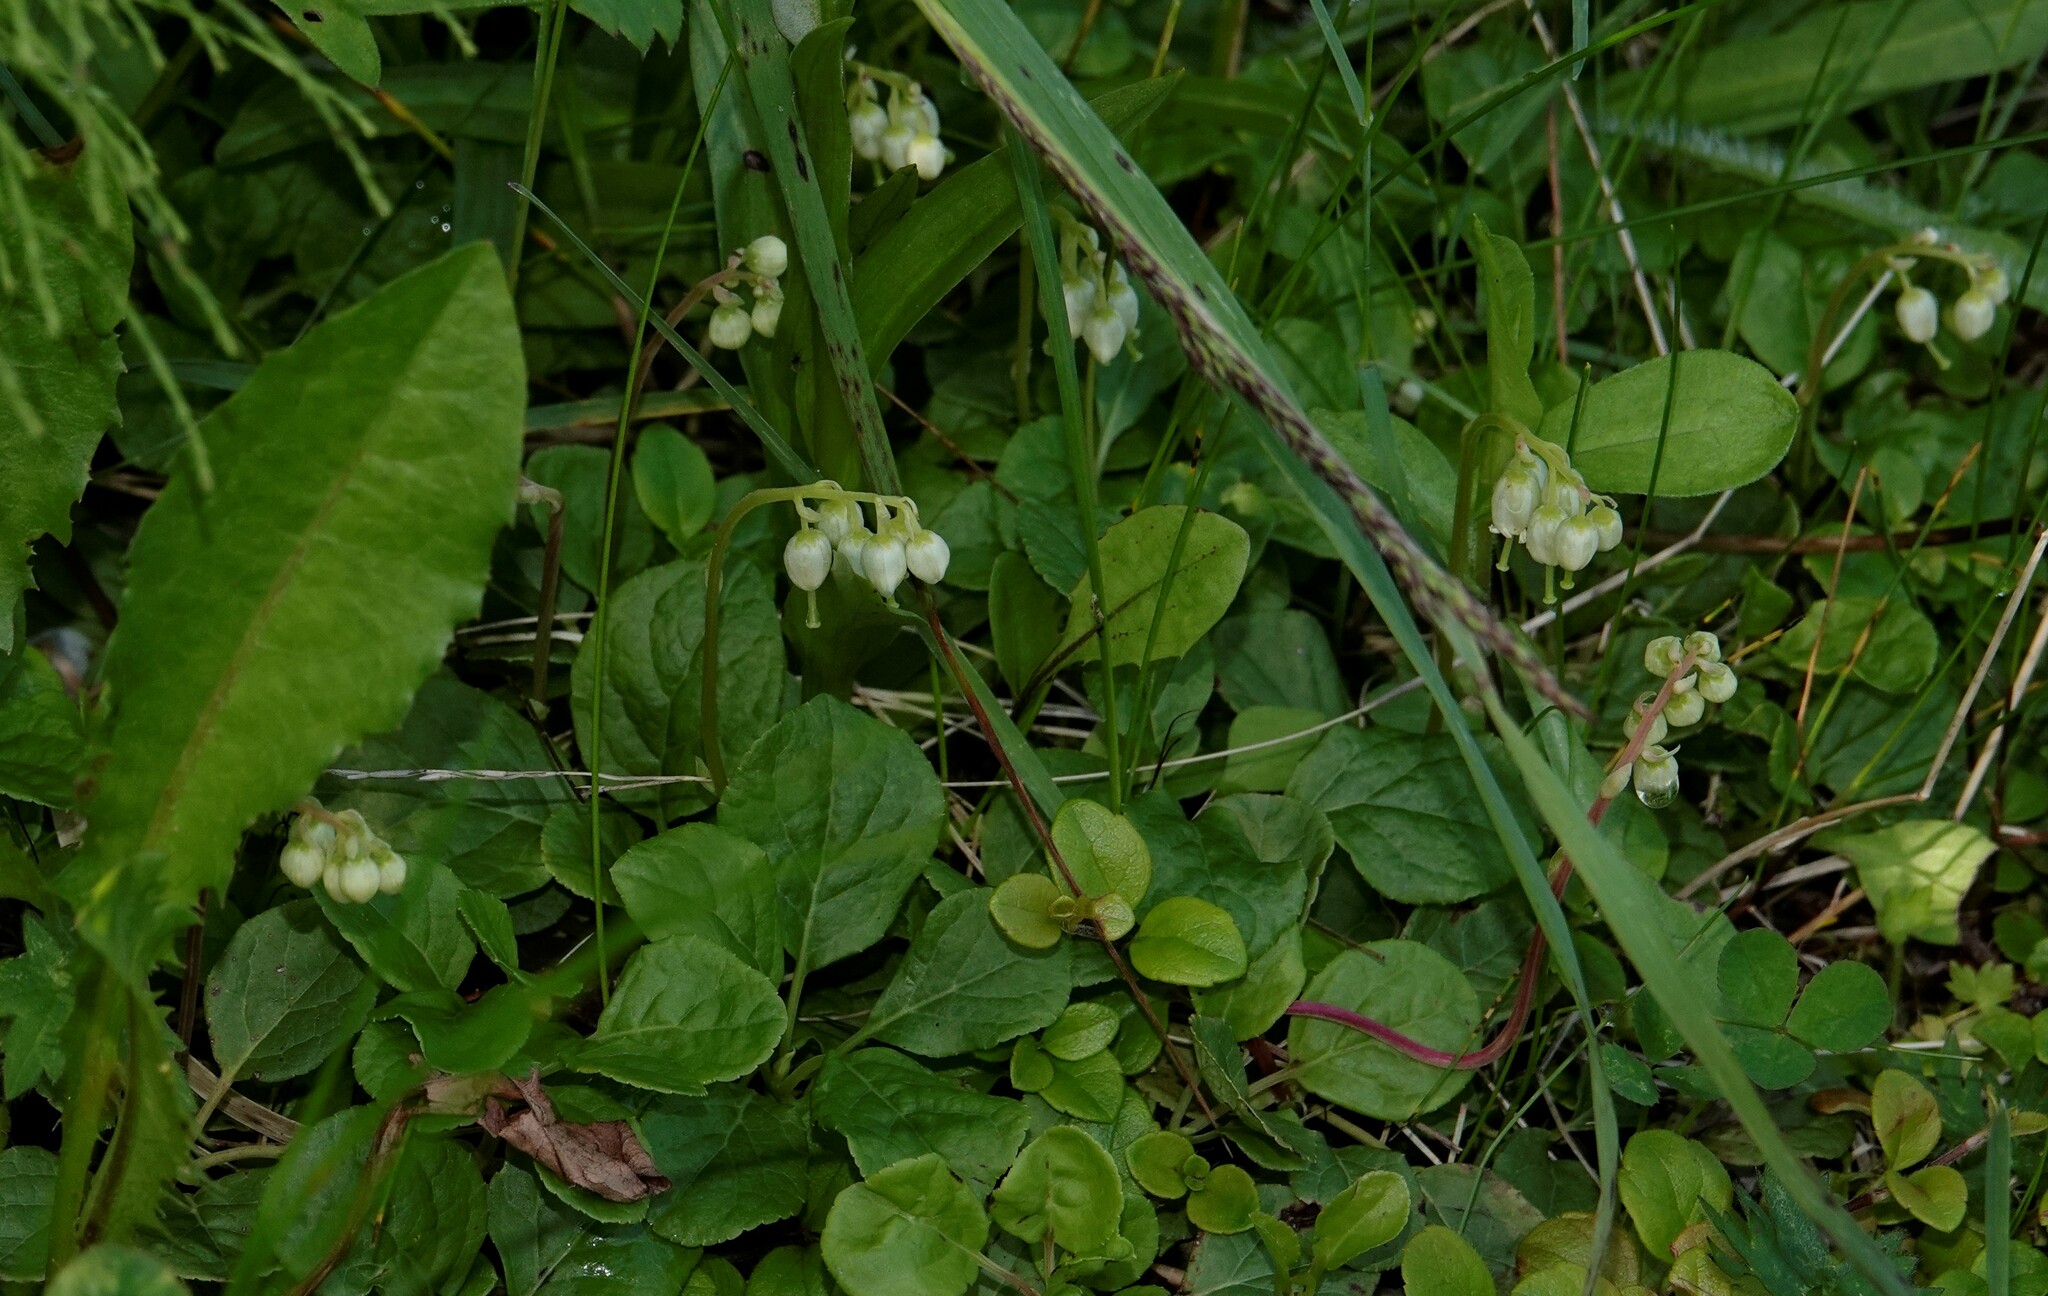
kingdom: Plantae
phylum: Tracheophyta
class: Magnoliopsida
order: Ericales
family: Ericaceae
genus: Orthilia
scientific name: Orthilia secunda
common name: One-sided orthilia
